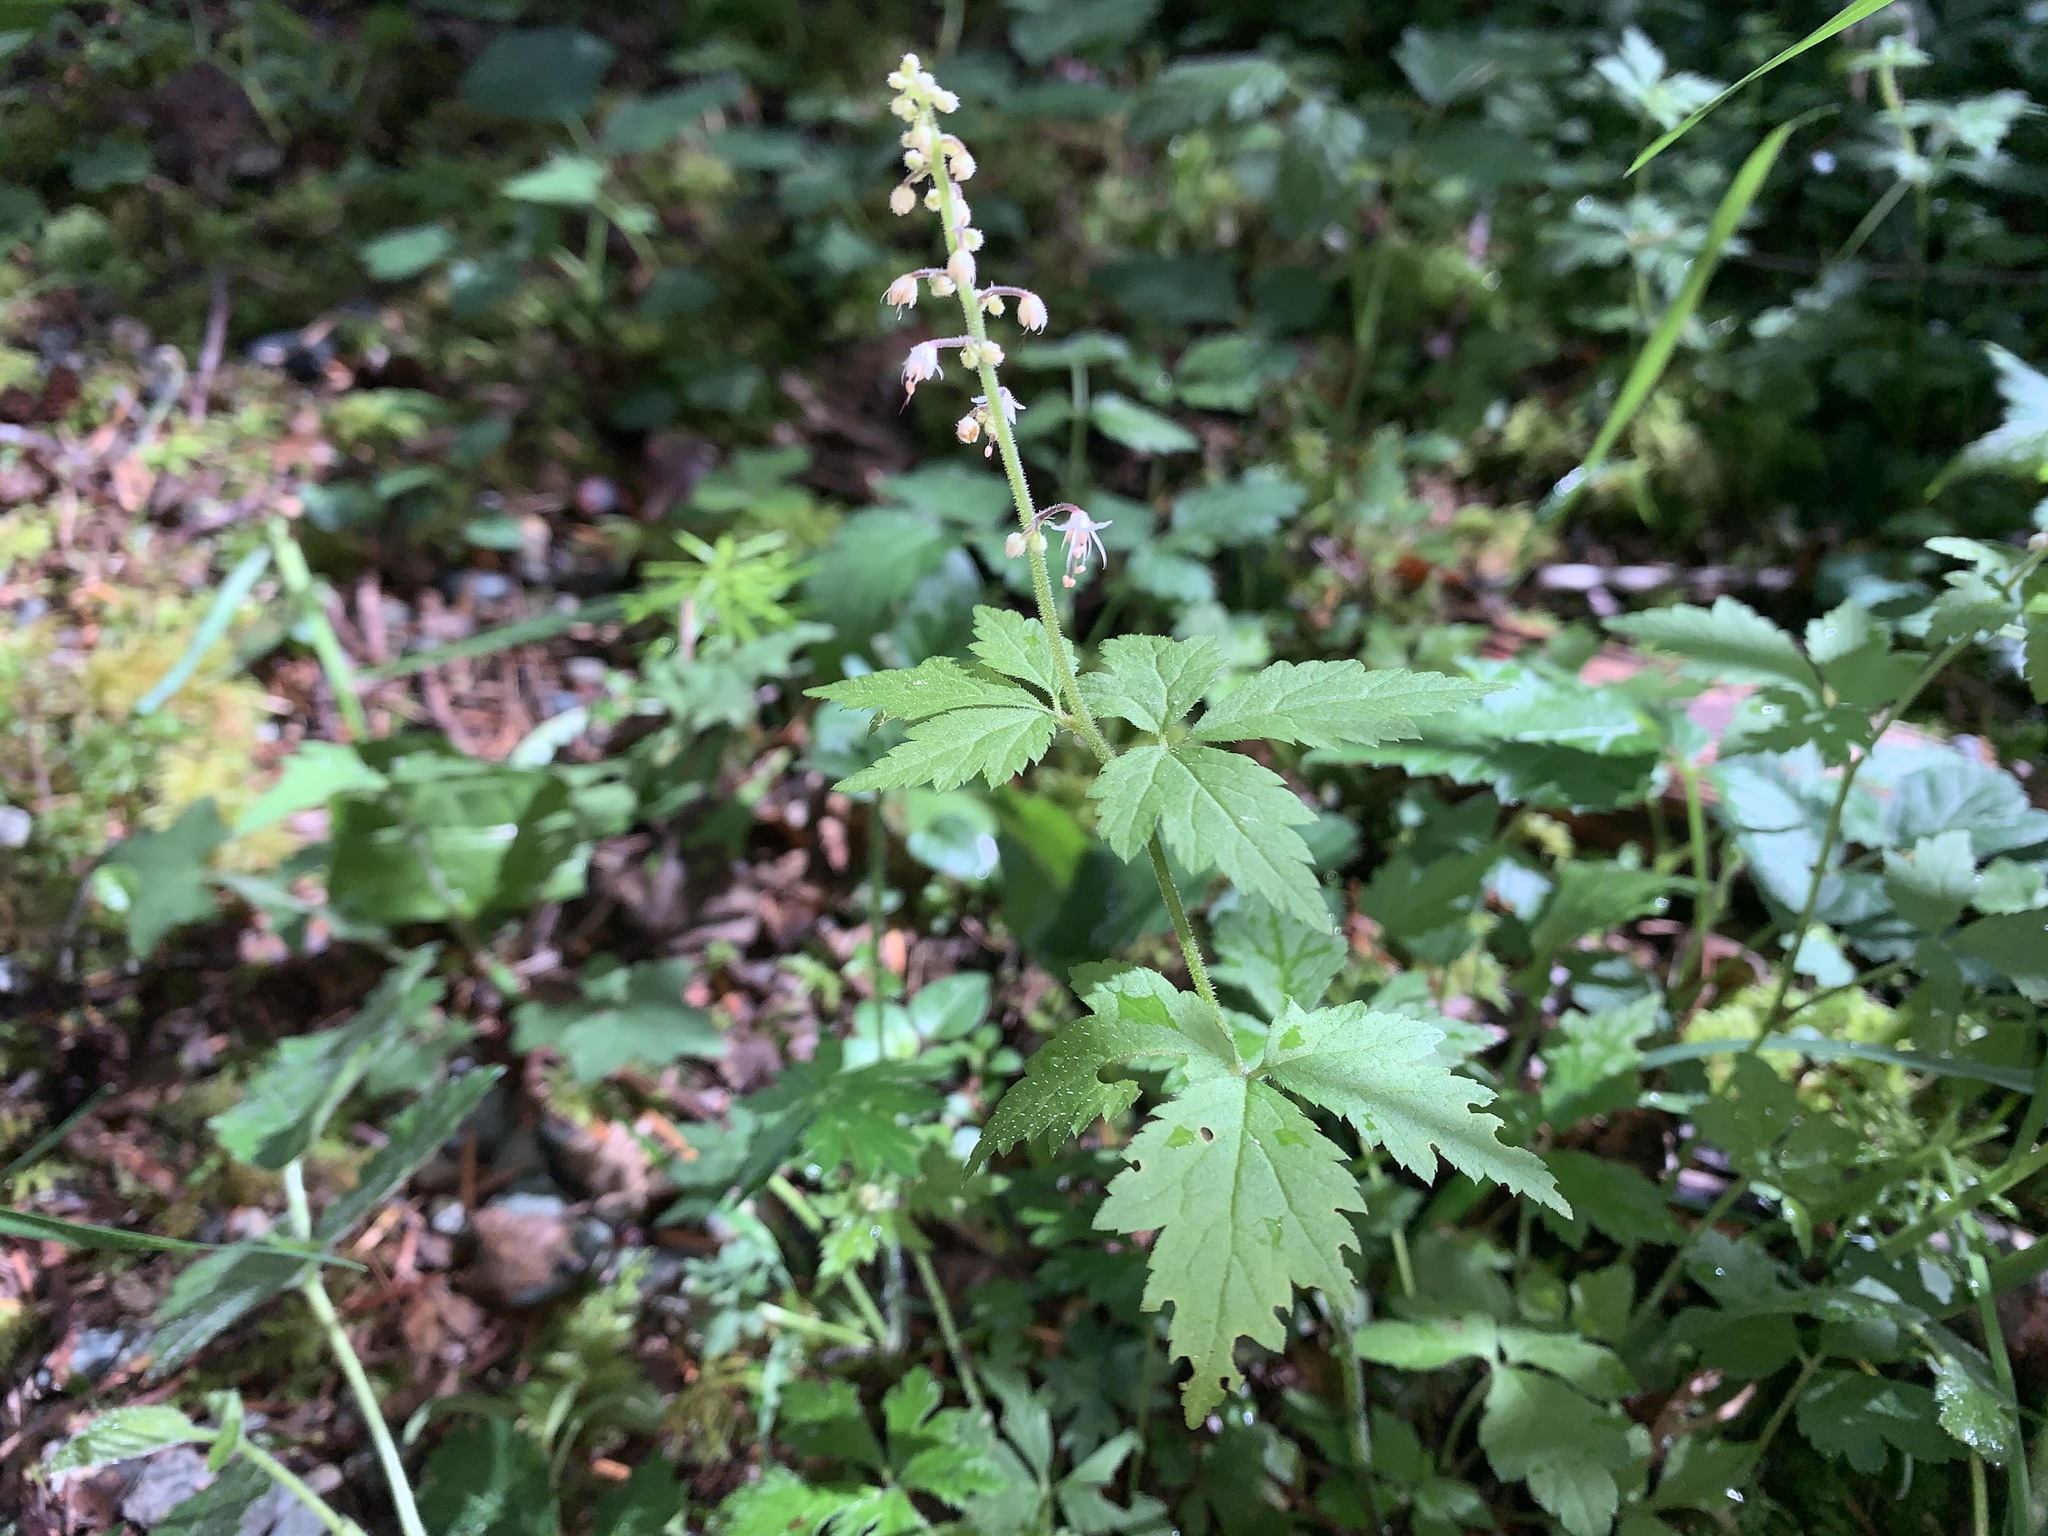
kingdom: Plantae
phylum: Tracheophyta
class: Magnoliopsida
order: Saxifragales
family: Saxifragaceae
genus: Tiarella
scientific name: Tiarella trifoliata
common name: Sugar-scoop
